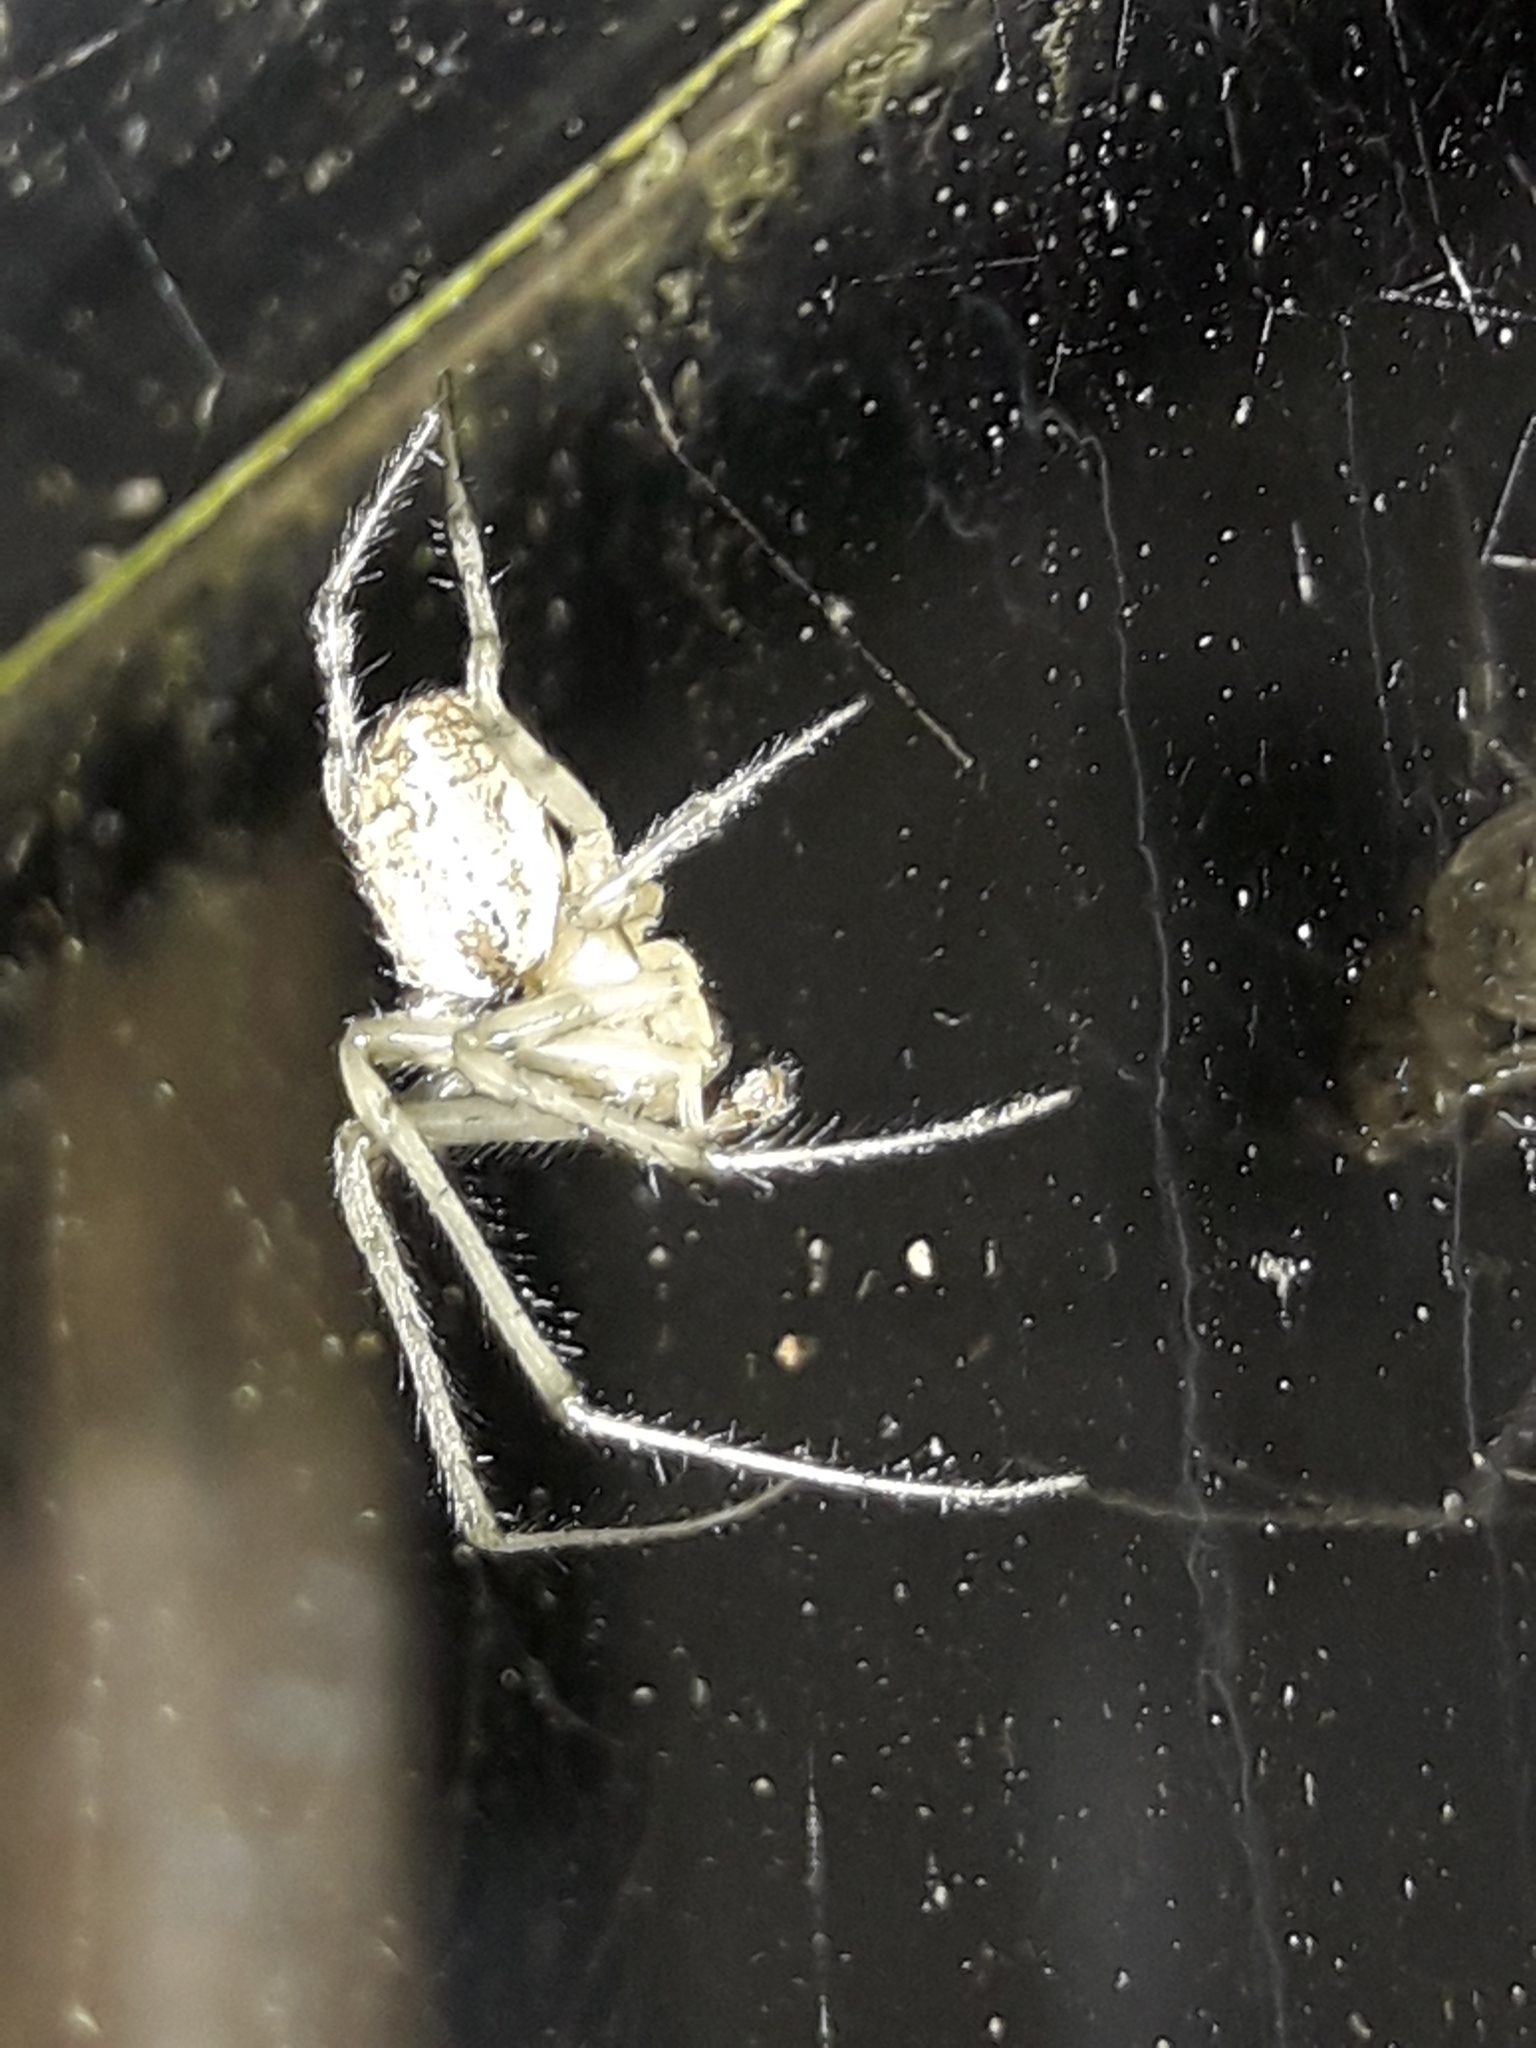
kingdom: Animalia
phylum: Arthropoda
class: Arachnida
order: Araneae
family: Araneidae
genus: Zygiella
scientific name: Zygiella x-notata
